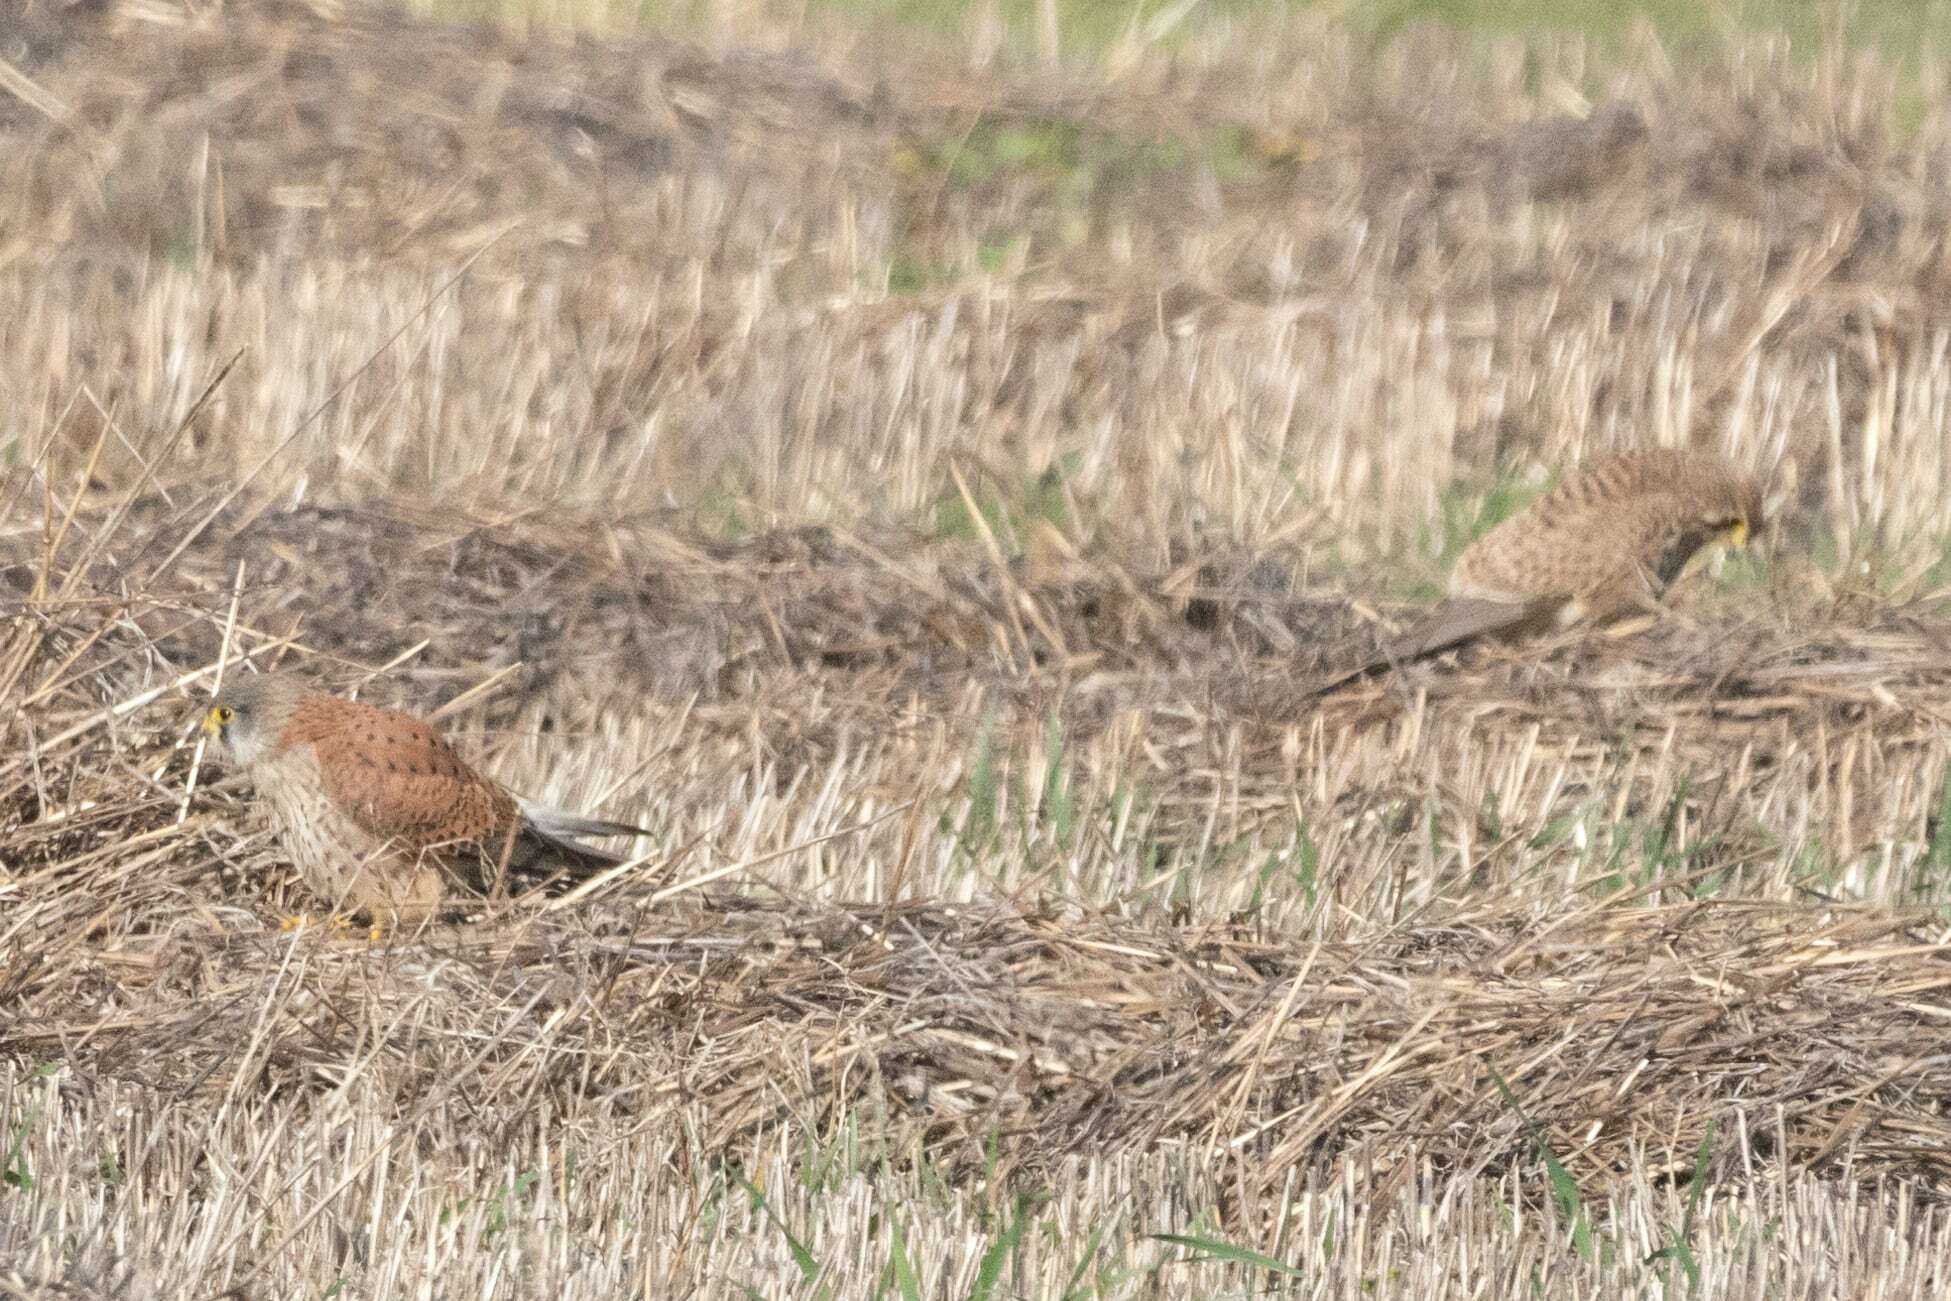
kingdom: Animalia
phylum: Chordata
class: Aves
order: Falconiformes
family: Falconidae
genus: Falco
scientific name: Falco tinnunculus
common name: Common kestrel
